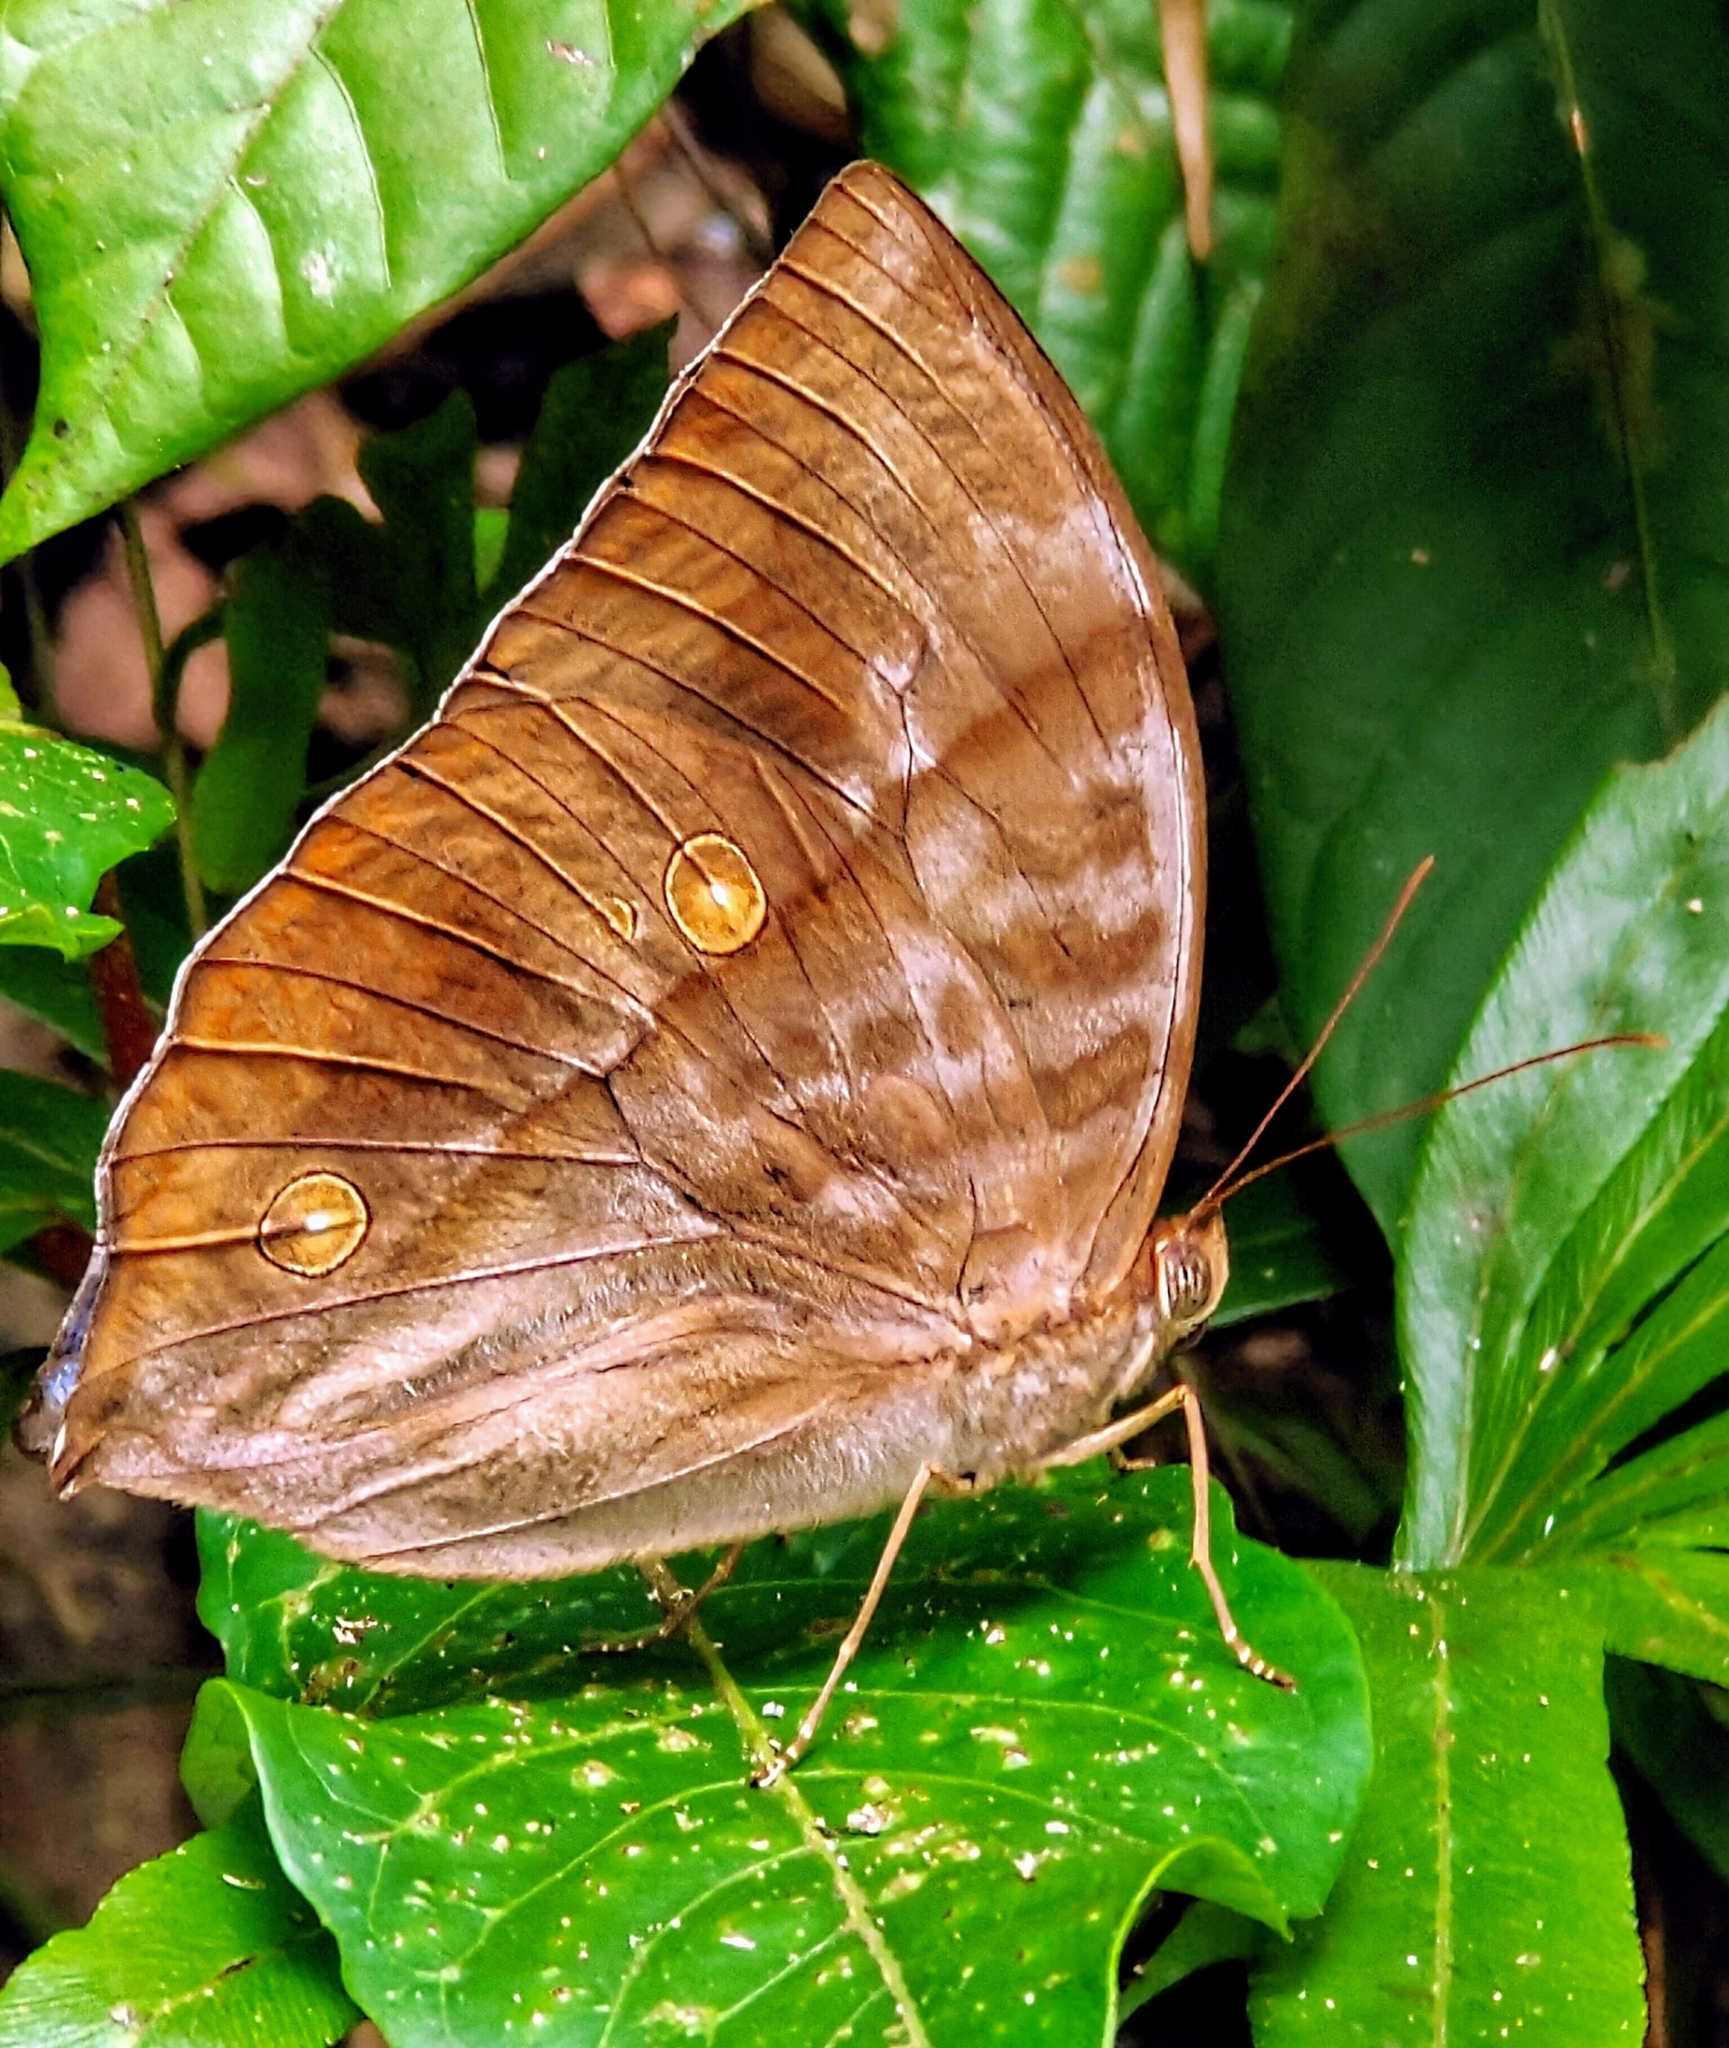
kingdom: Animalia
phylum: Arthropoda
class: Insecta
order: Lepidoptera
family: Nymphalidae
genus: Zeuxidia
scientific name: Zeuxidia amethysta
